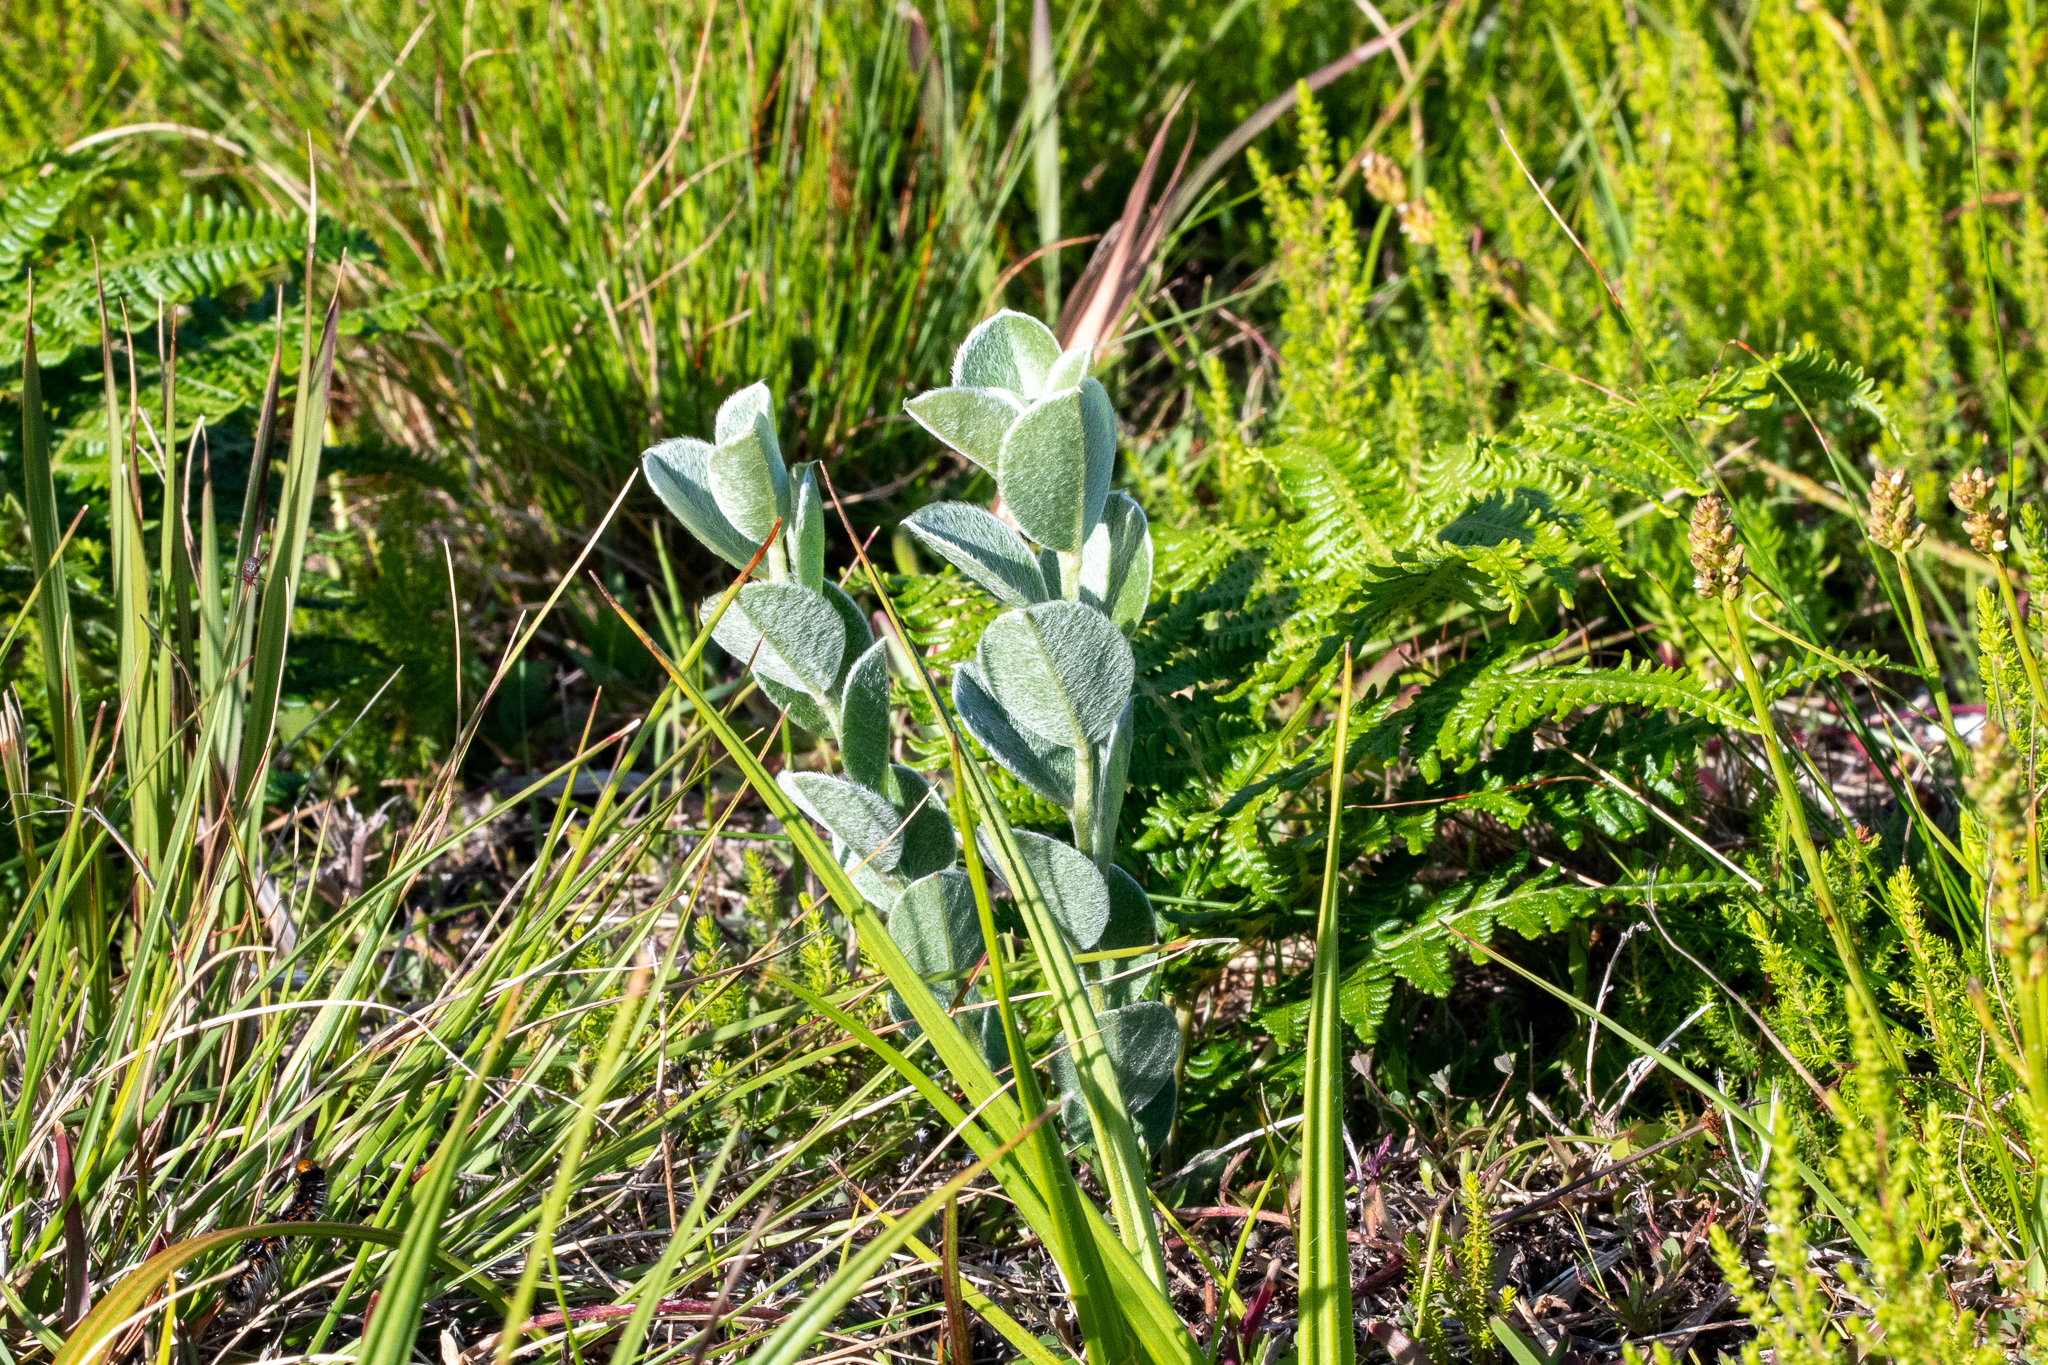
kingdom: Plantae
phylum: Tracheophyta
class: Magnoliopsida
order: Fabales
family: Fabaceae
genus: Podalyria
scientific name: Podalyria calyptrata
